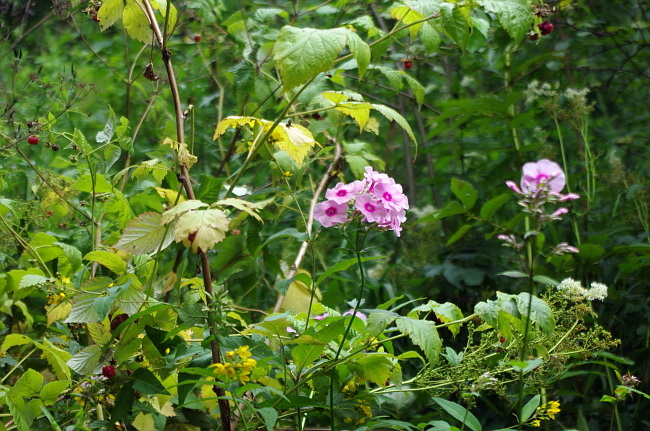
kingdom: Plantae
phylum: Tracheophyta
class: Magnoliopsida
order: Ericales
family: Polemoniaceae
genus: Phlox
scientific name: Phlox paniculata
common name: Fall phlox
